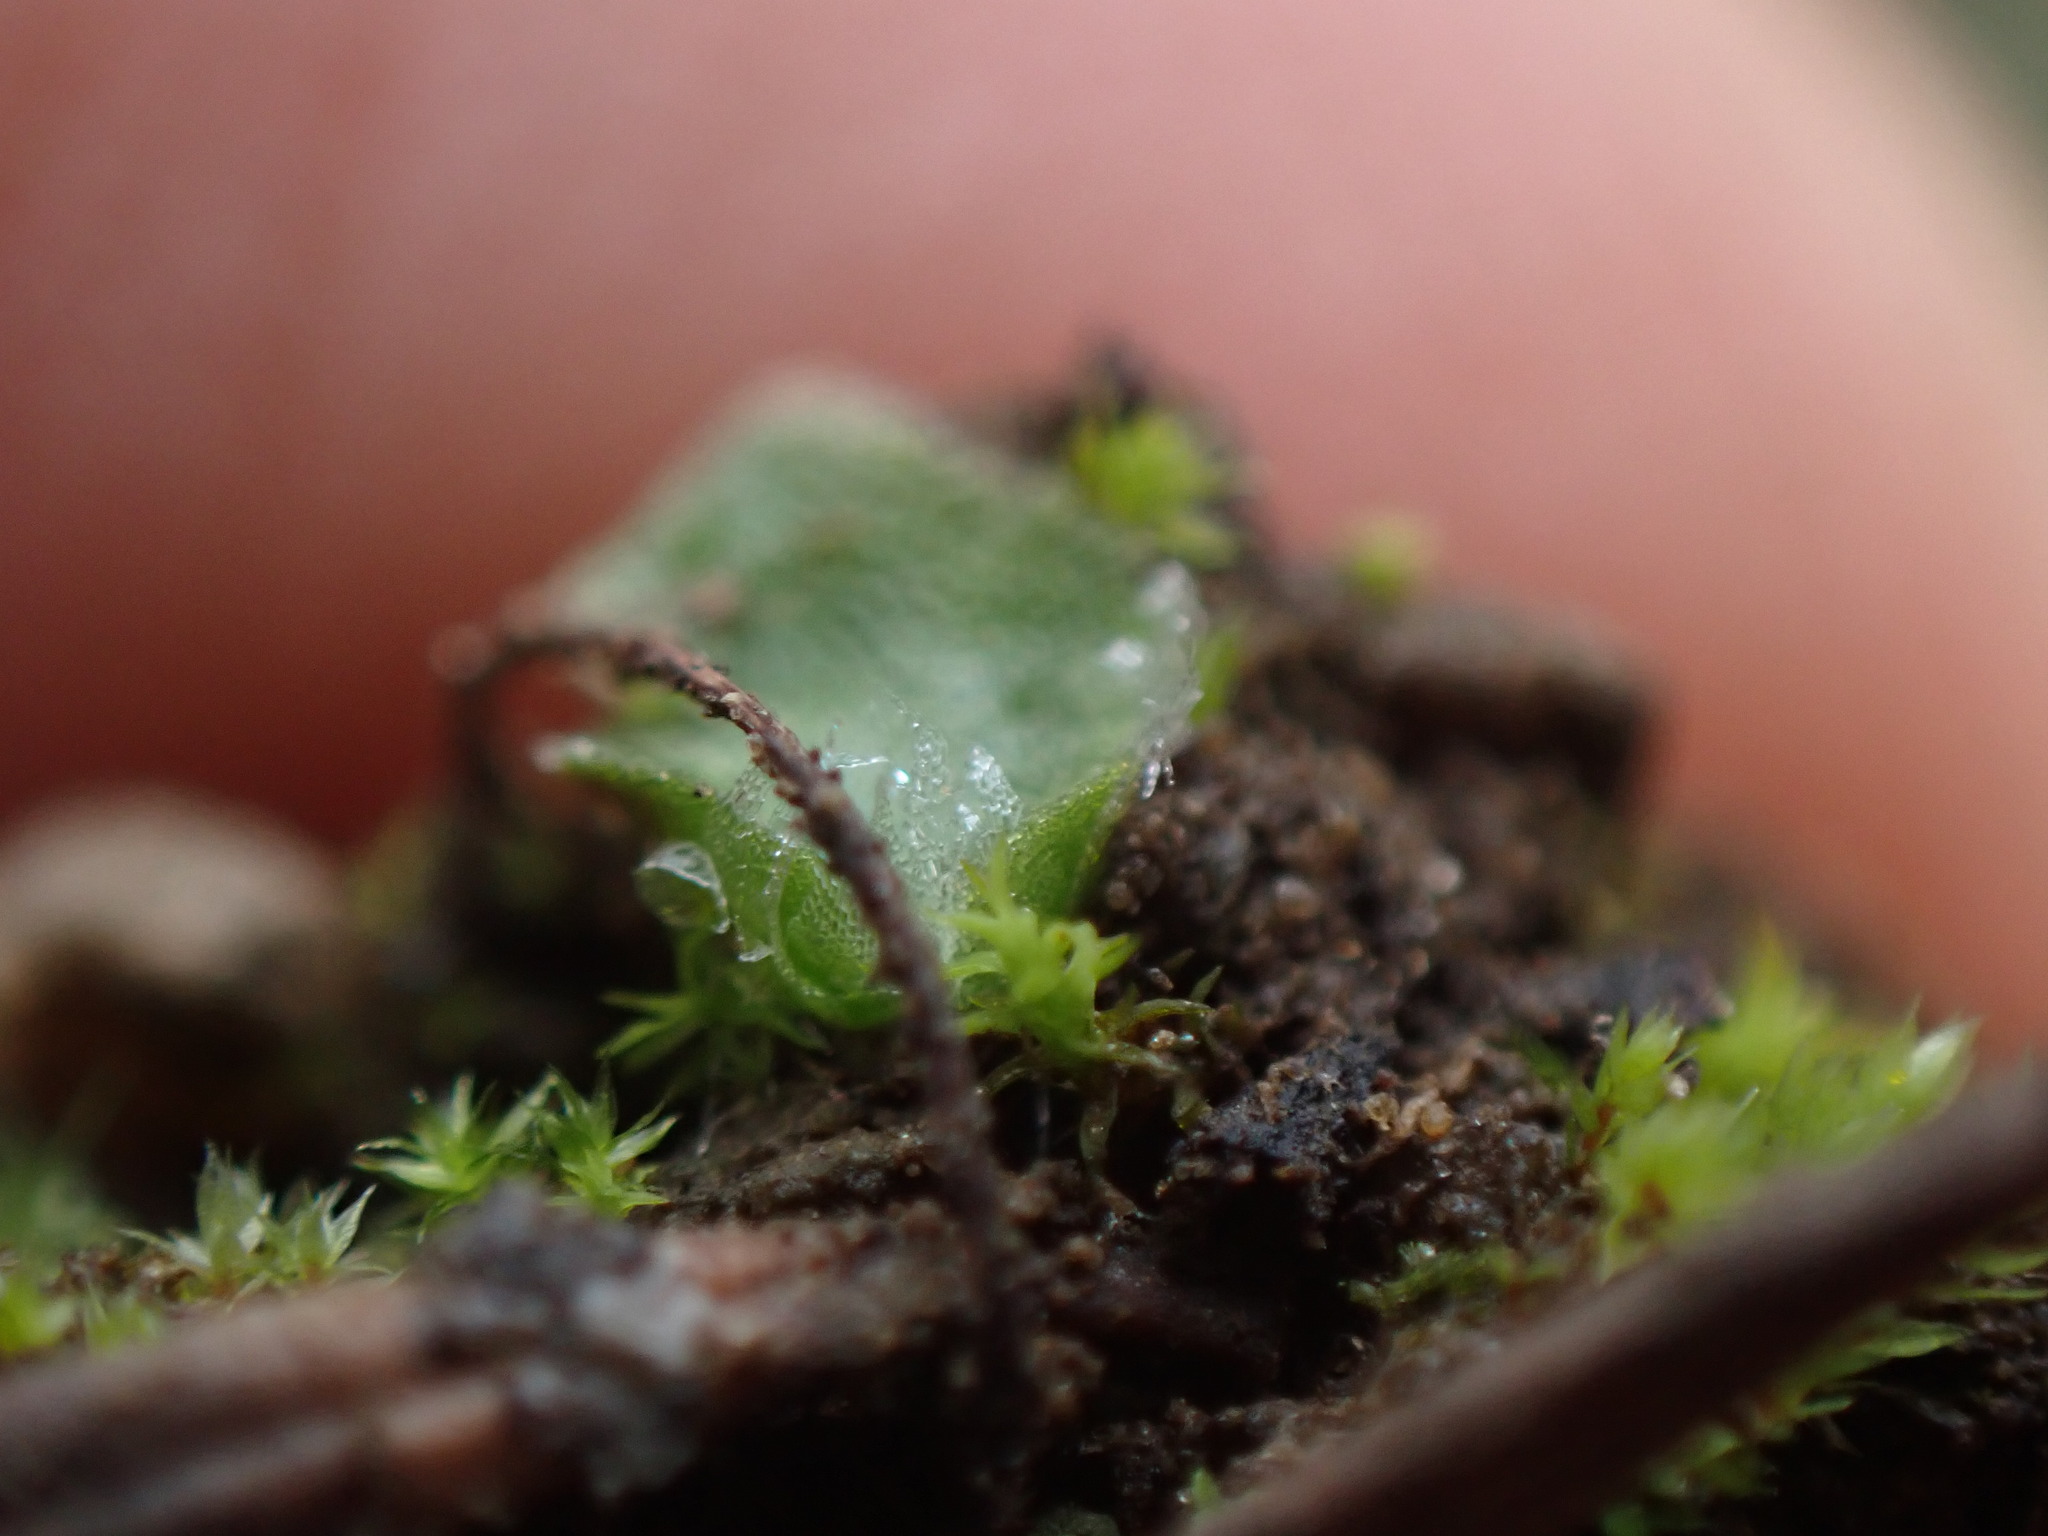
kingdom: Plantae
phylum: Marchantiophyta
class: Marchantiopsida
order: Marchantiales
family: Cleveaceae
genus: Clevea
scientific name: Clevea hyalina
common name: Hyaline liverwort
